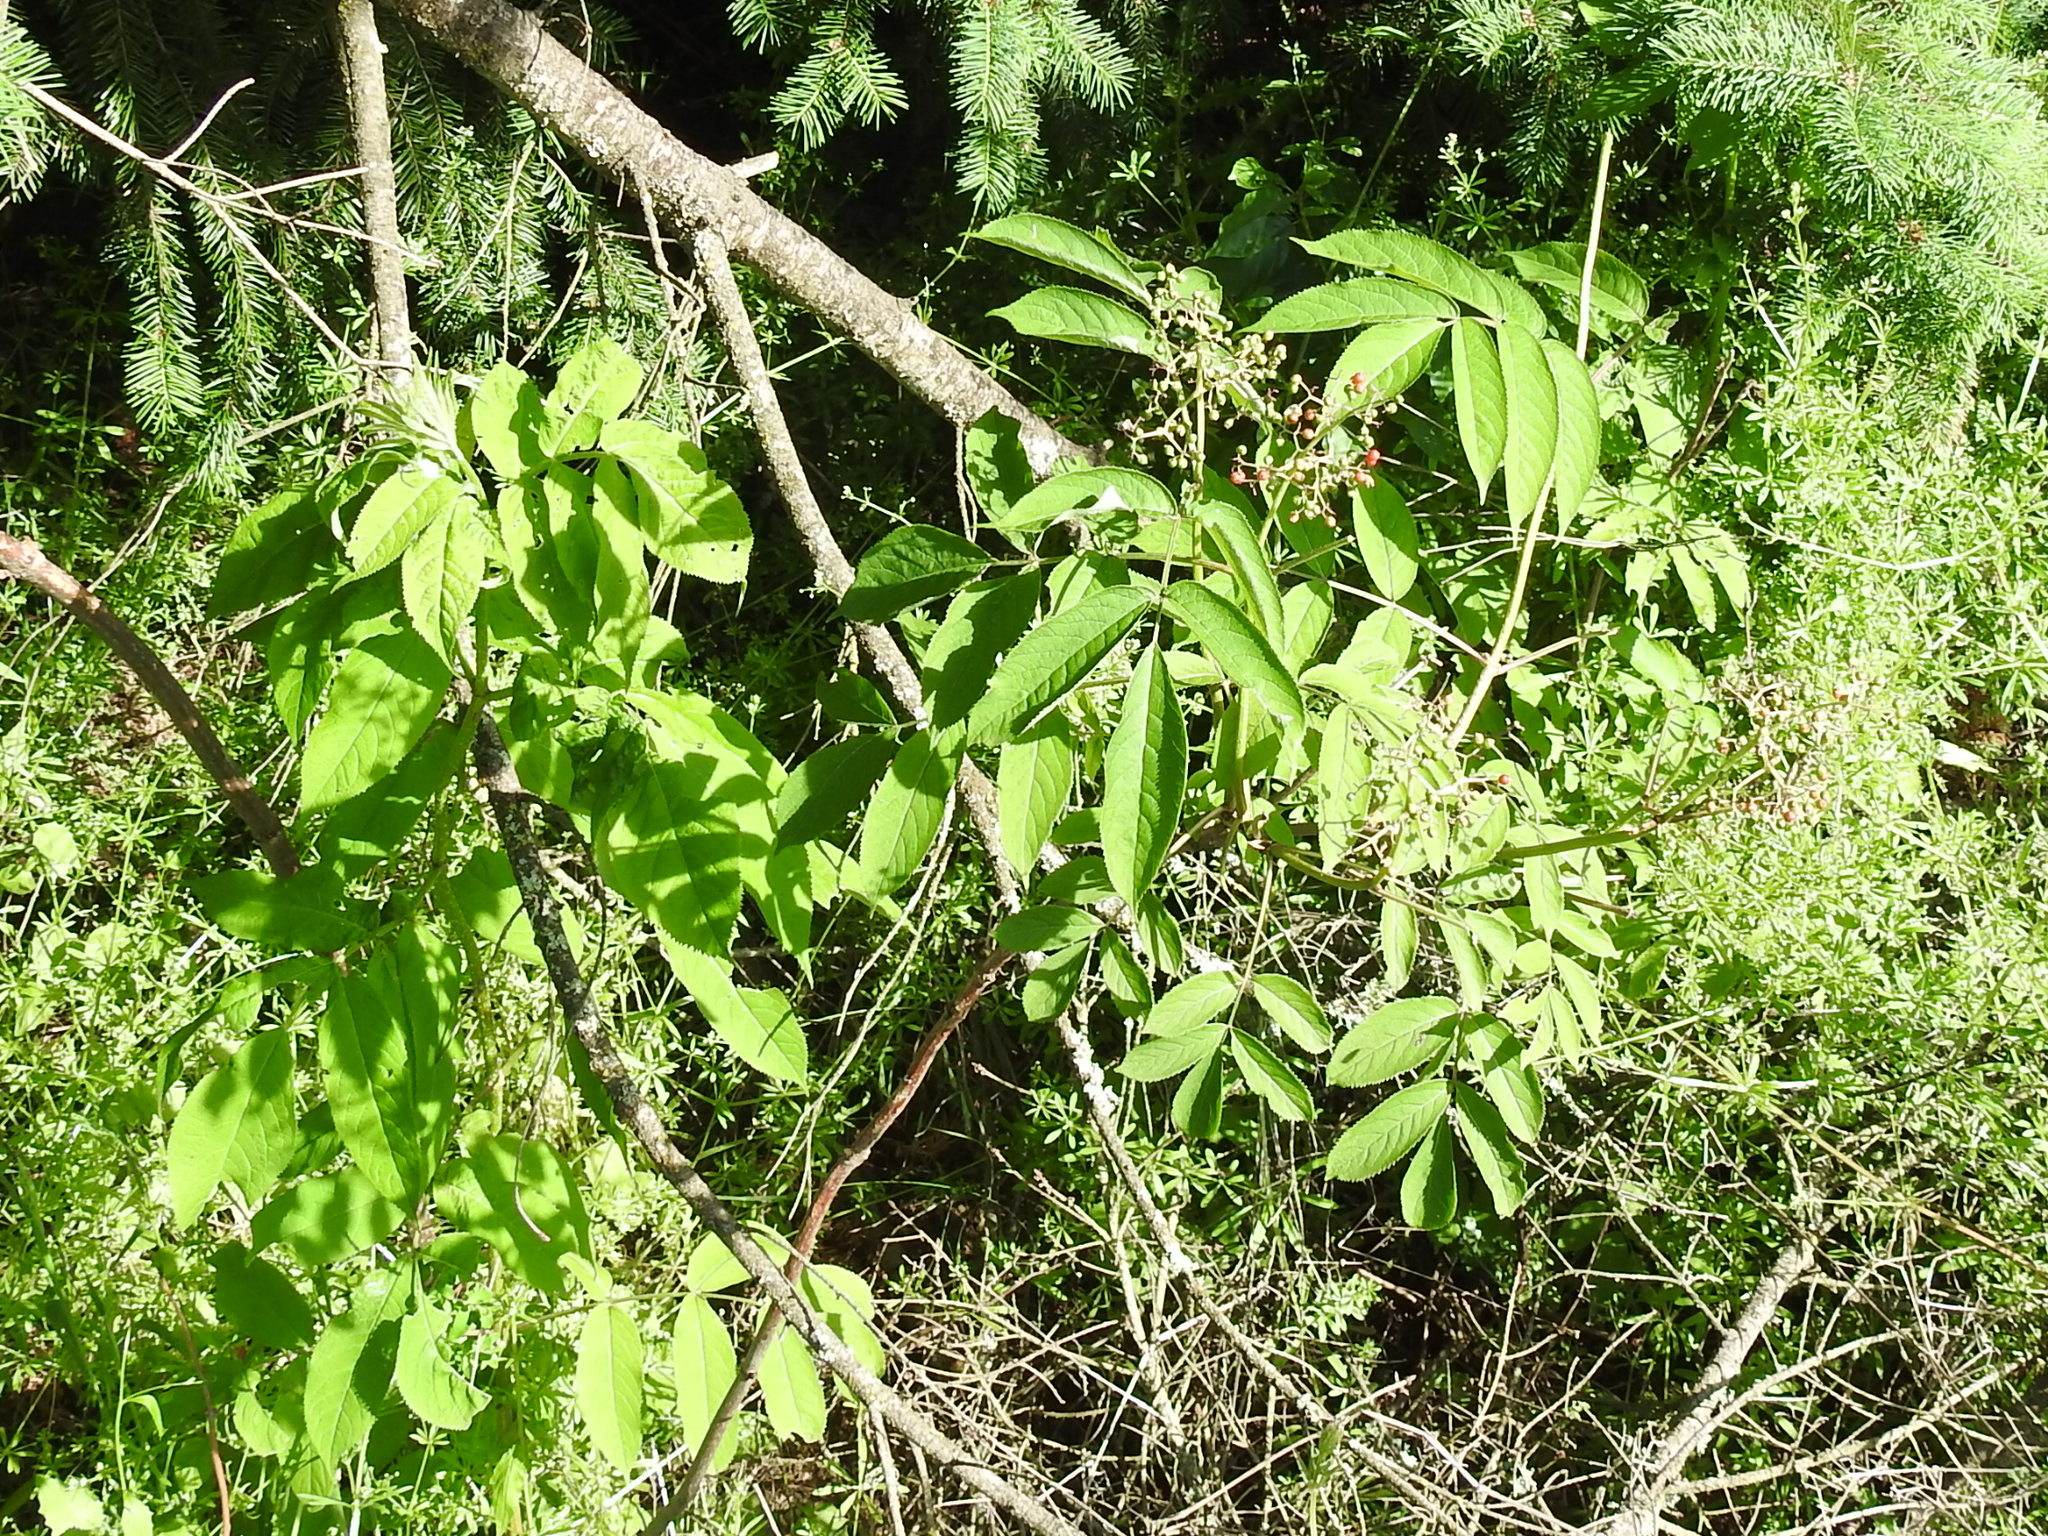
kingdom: Plantae
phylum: Tracheophyta
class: Magnoliopsida
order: Dipsacales
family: Viburnaceae
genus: Sambucus
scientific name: Sambucus racemosa
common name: Red-berried elder
